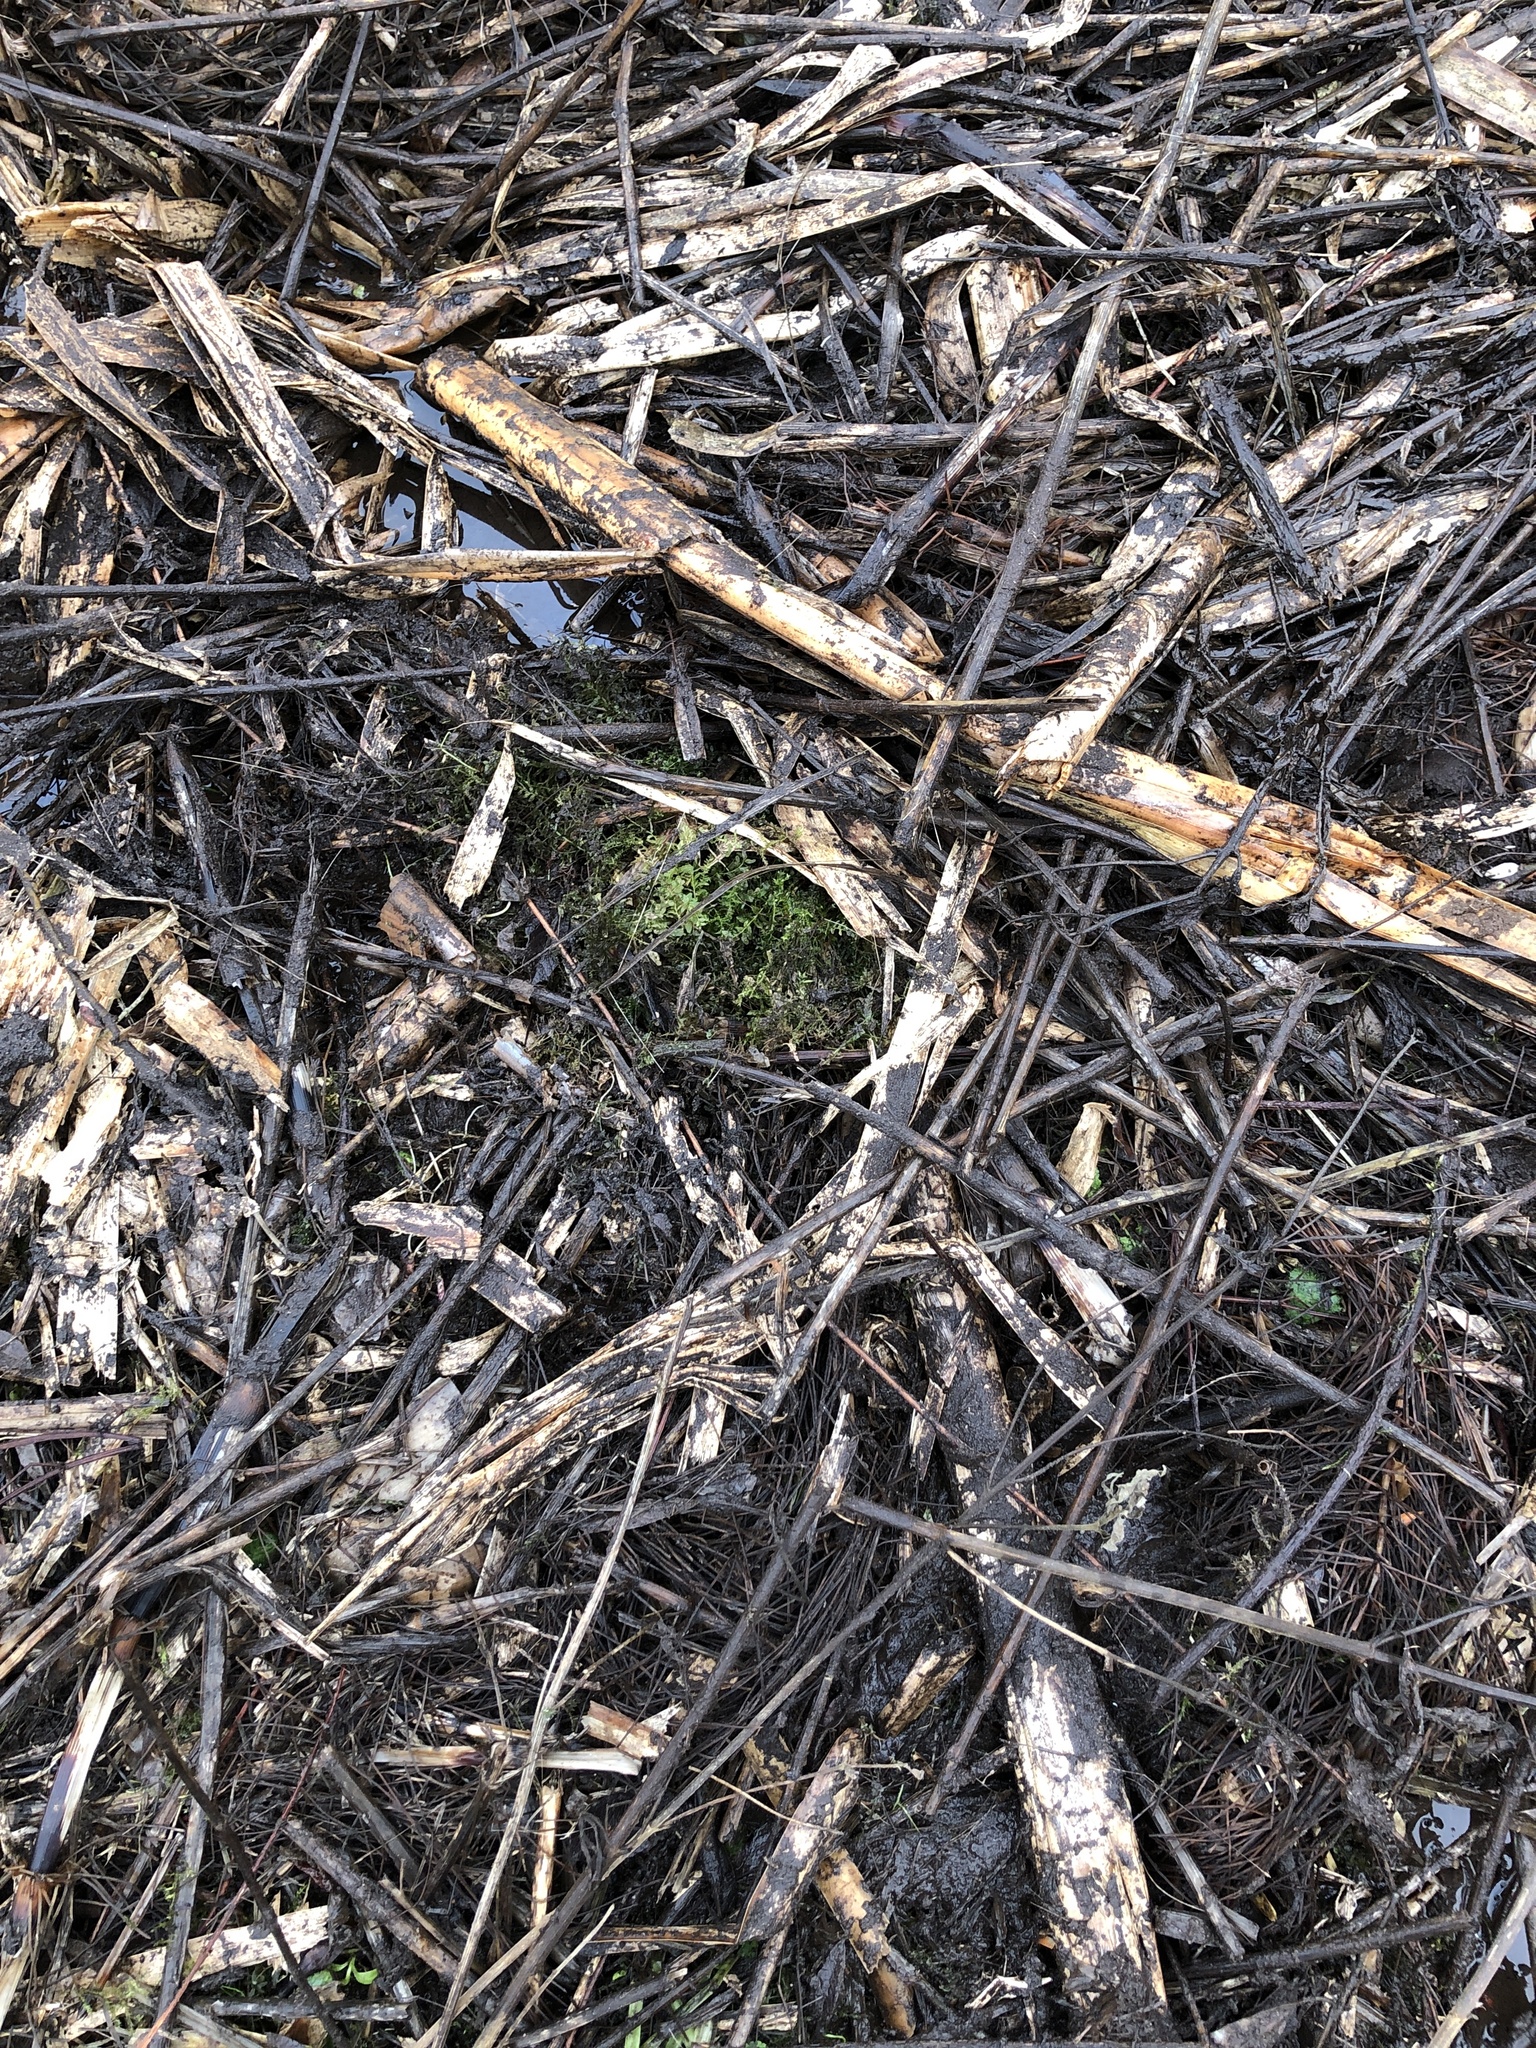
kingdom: Plantae
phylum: Bryophyta
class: Bryopsida
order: Bryales
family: Mniaceae
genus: Plagiomnium
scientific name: Plagiomnium undulatum
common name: Hart's-tongue thyme-moss
